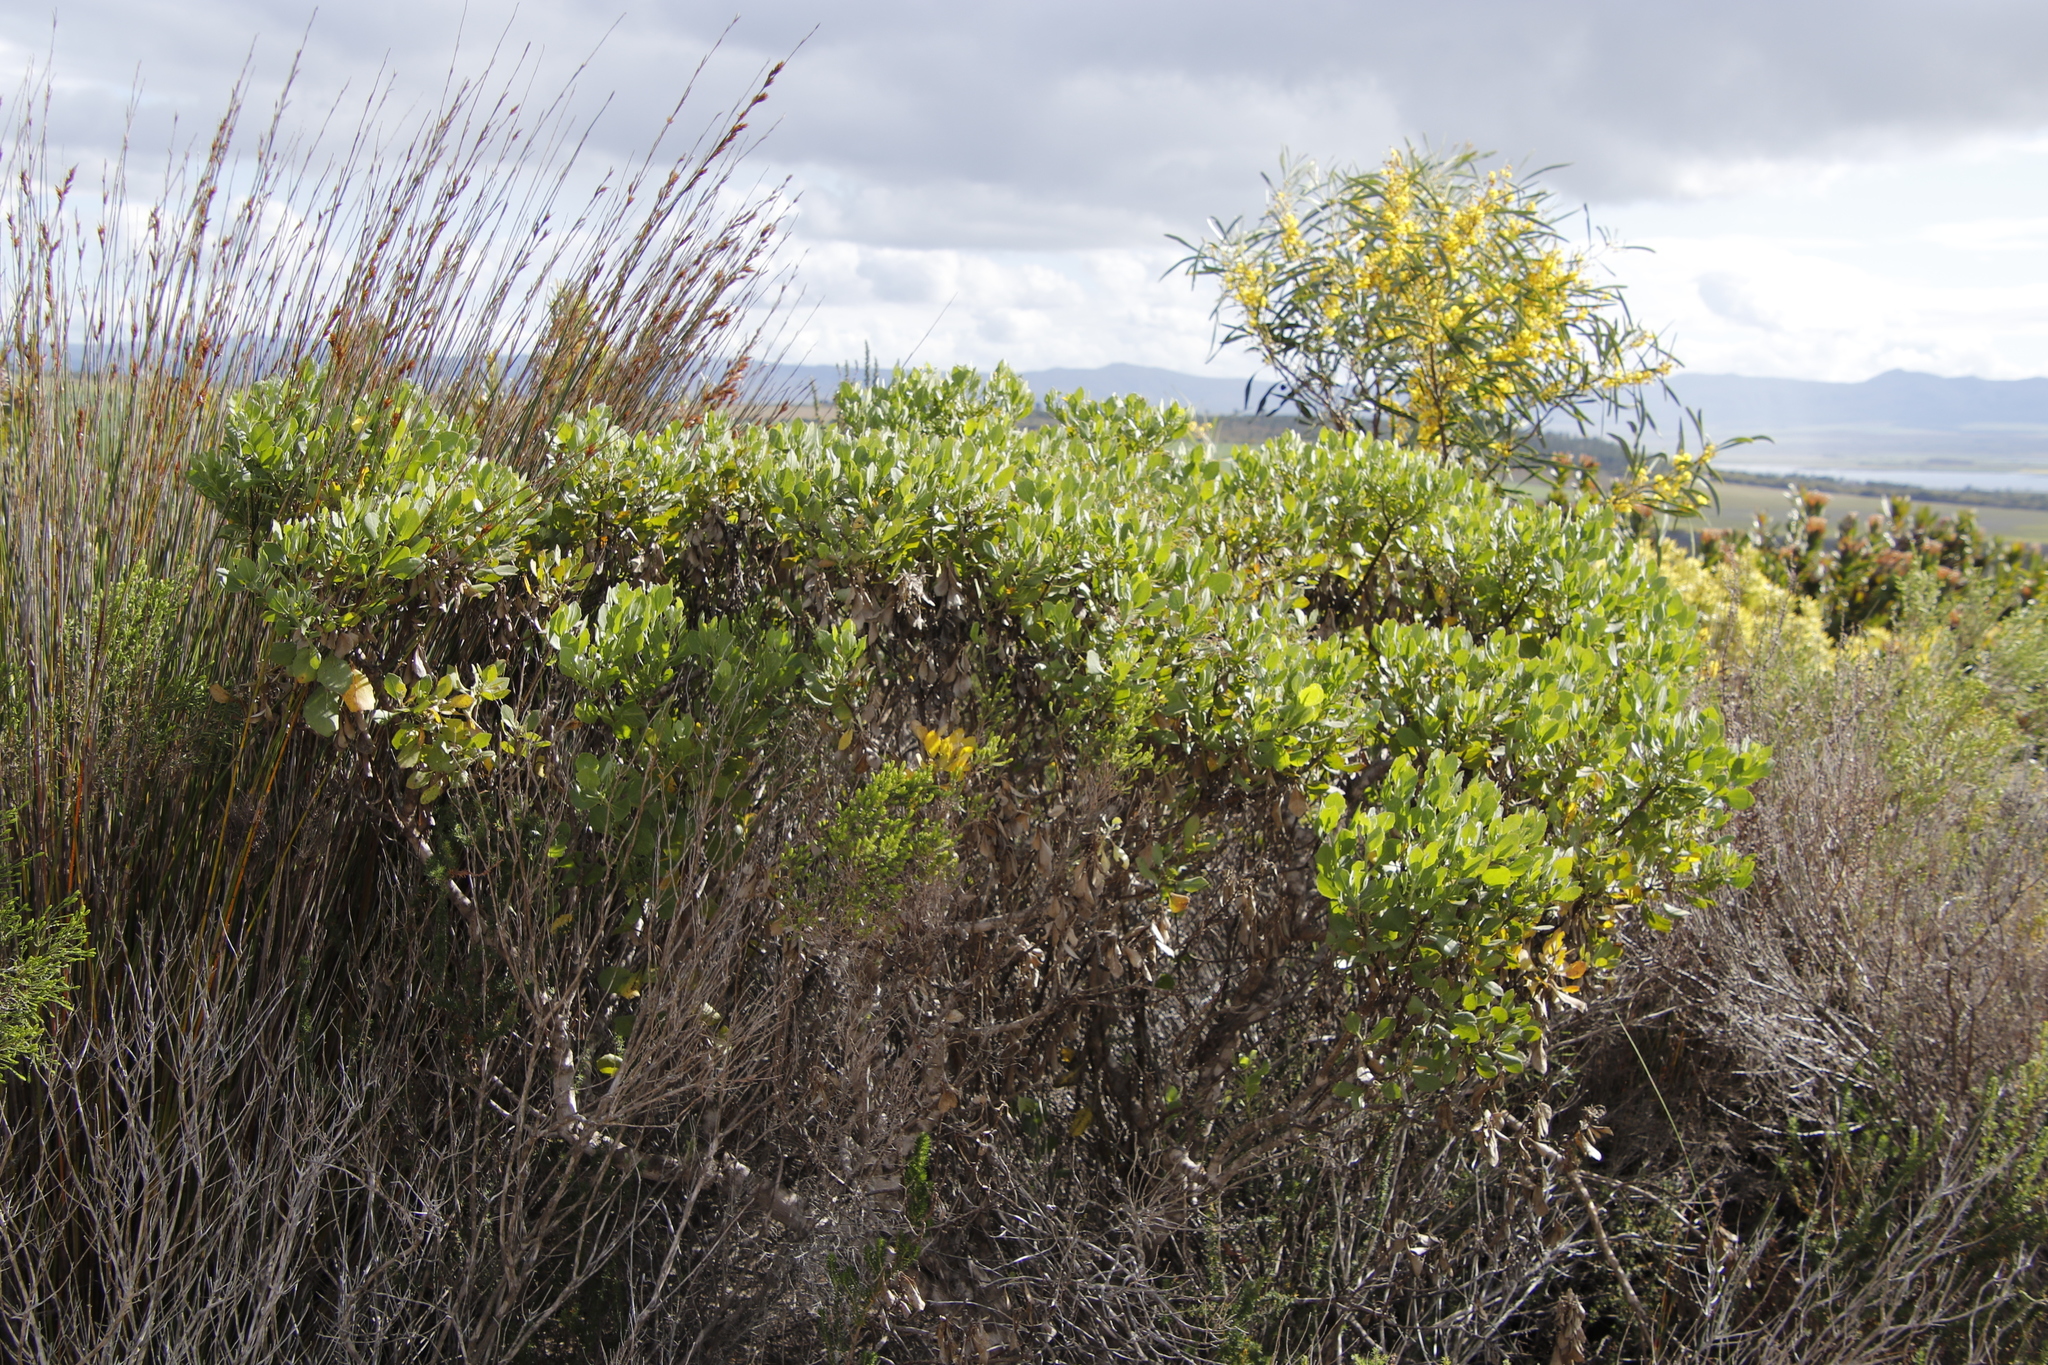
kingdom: Plantae
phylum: Tracheophyta
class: Magnoliopsida
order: Asterales
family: Asteraceae
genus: Osteospermum
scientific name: Osteospermum moniliferum
